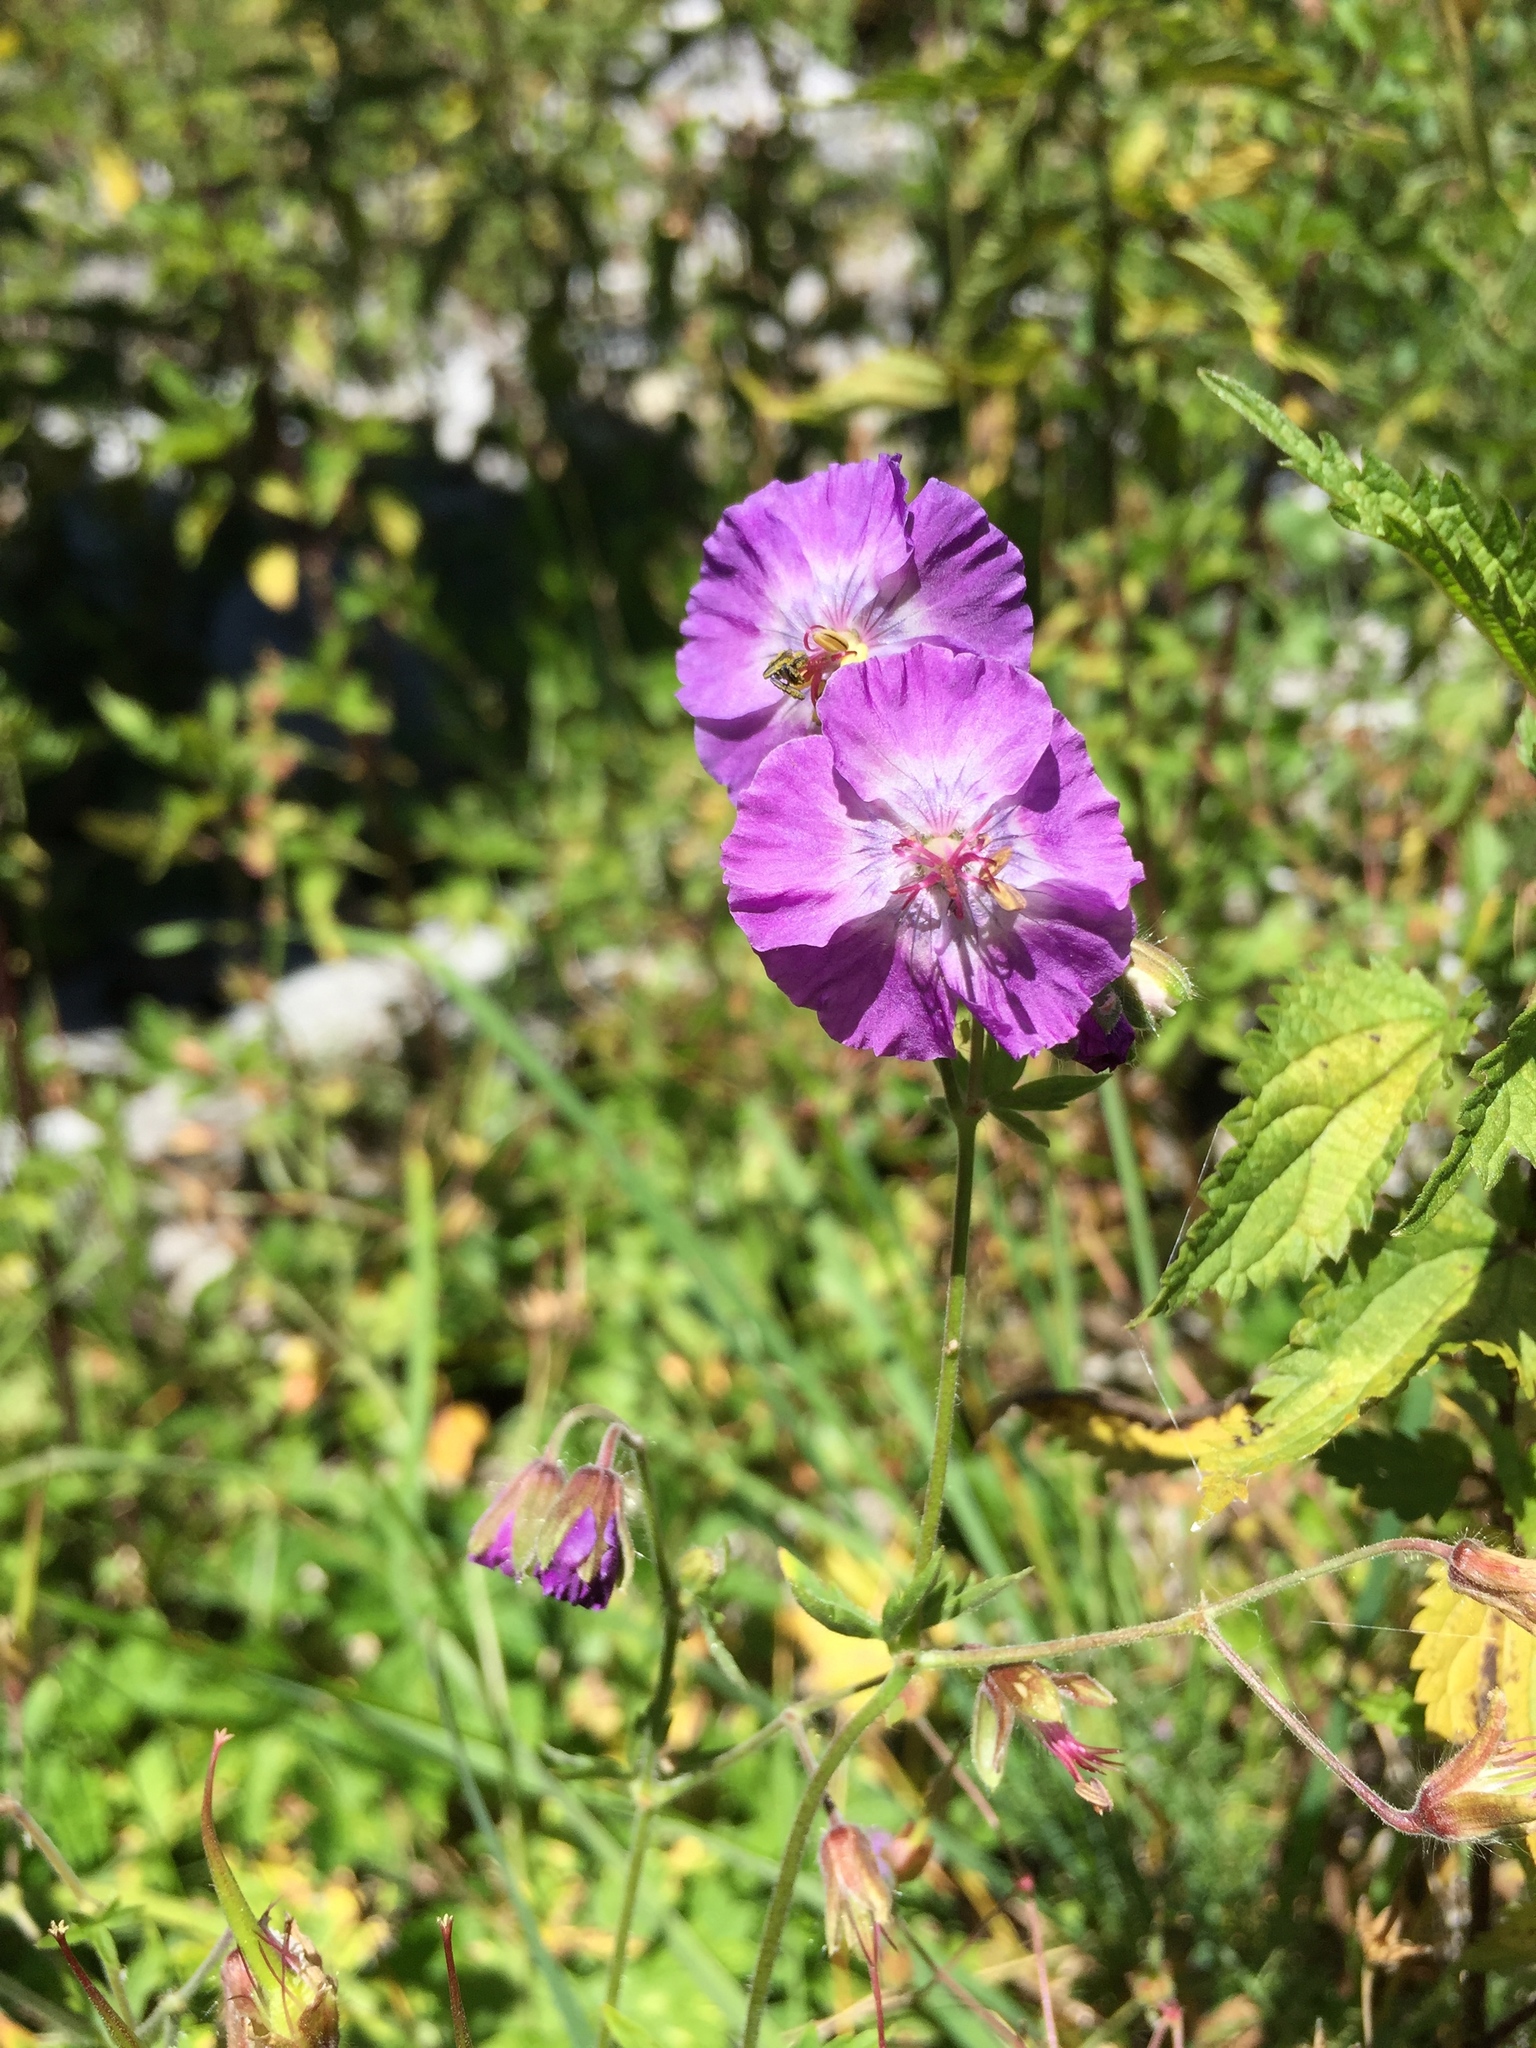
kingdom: Plantae
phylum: Tracheophyta
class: Magnoliopsida
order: Geraniales
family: Geraniaceae
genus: Geranium
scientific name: Geranium phaeum
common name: Dusky crane's-bill
